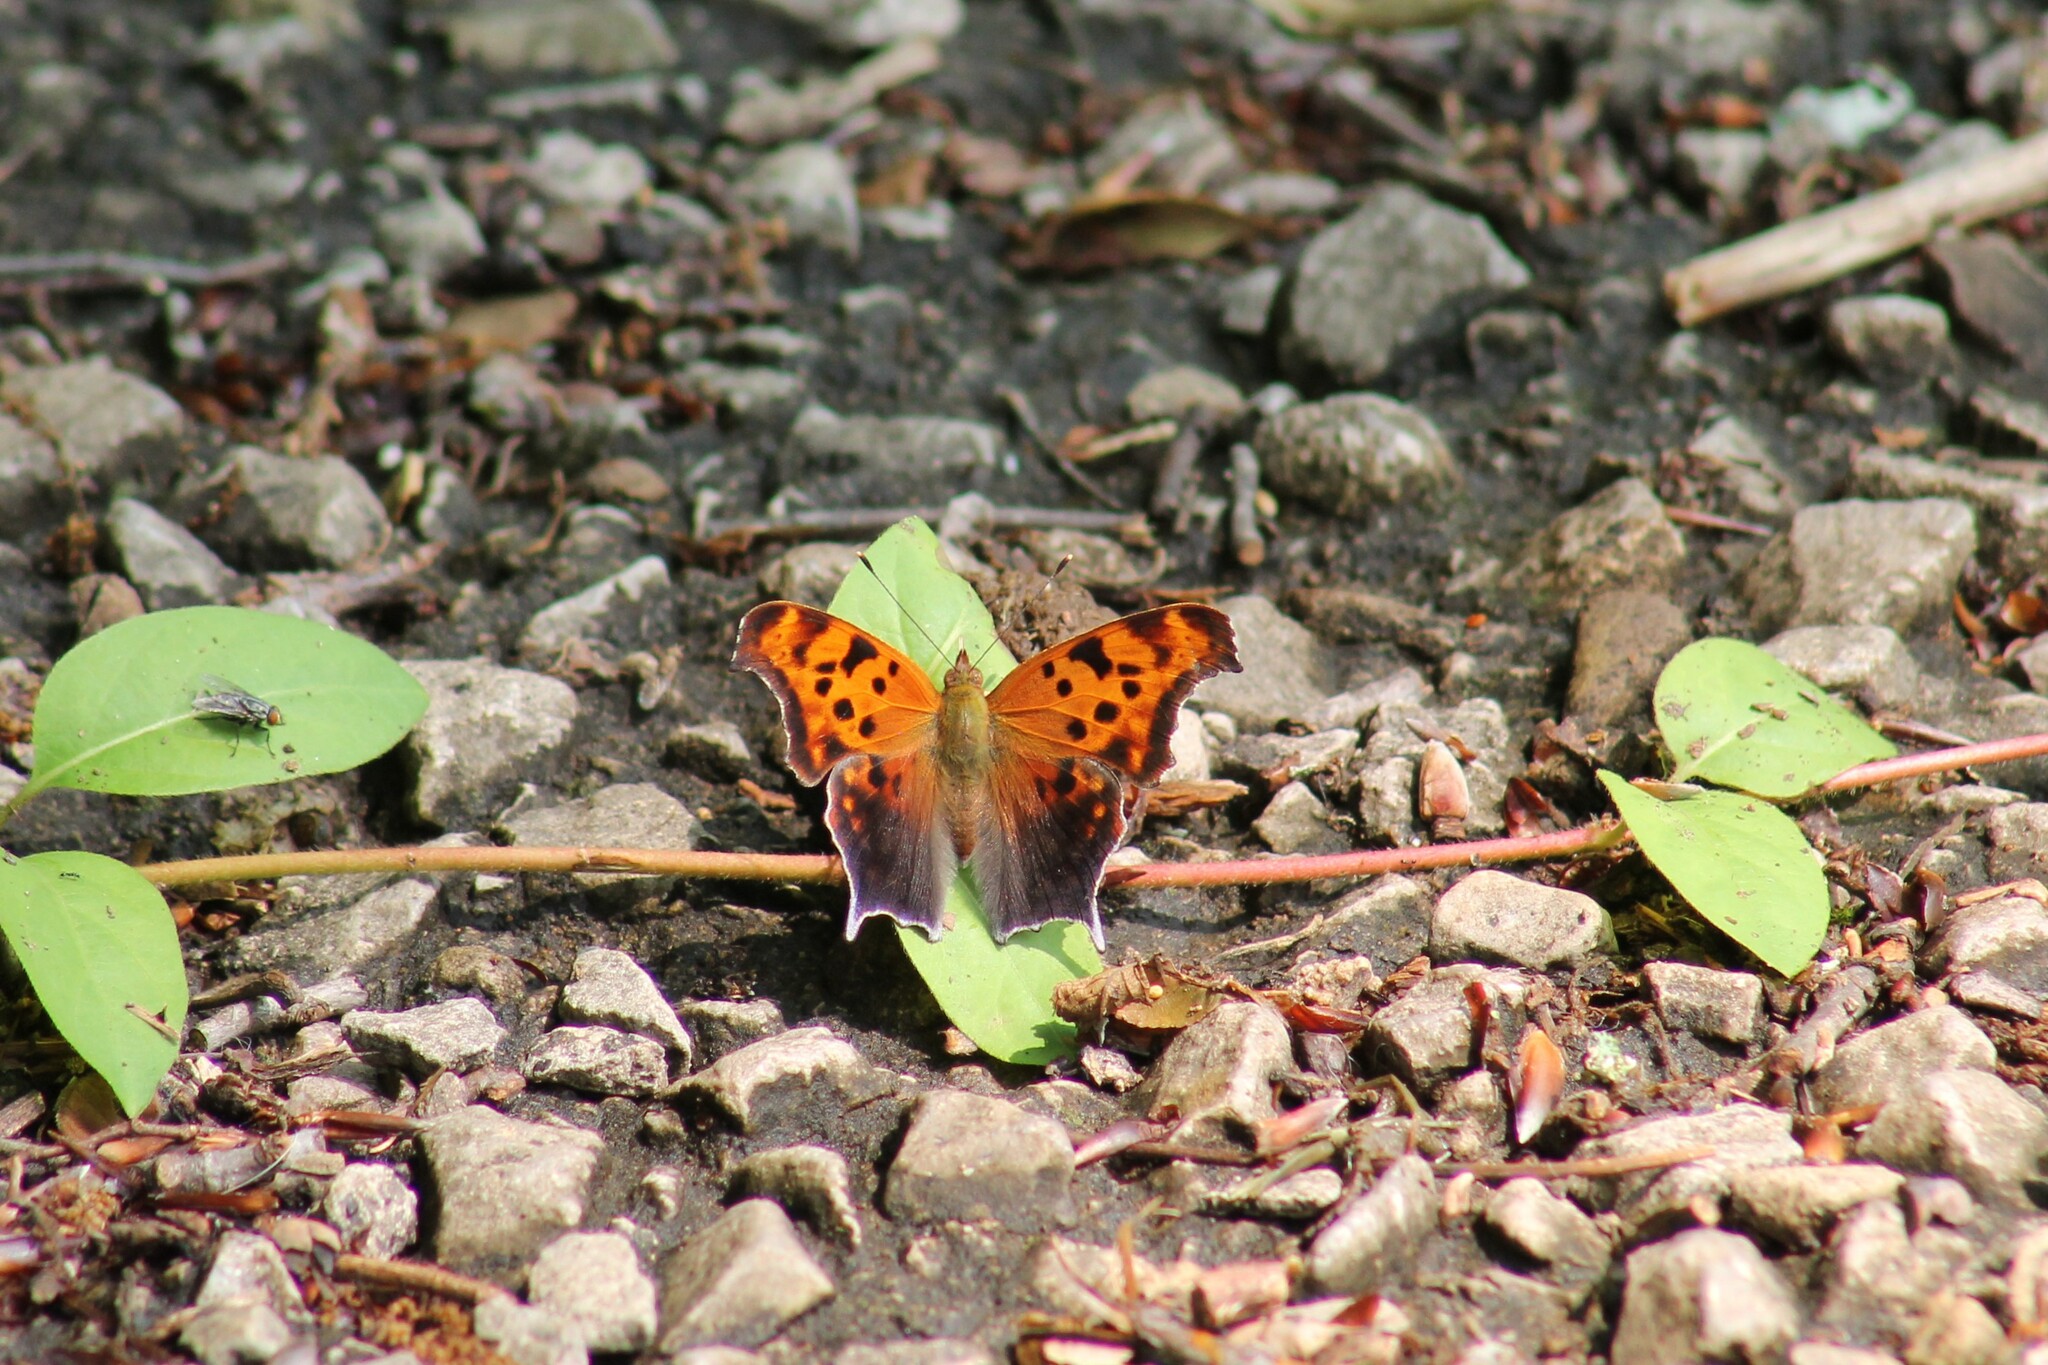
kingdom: Animalia
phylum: Arthropoda
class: Insecta
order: Lepidoptera
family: Nymphalidae
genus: Polygonia
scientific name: Polygonia interrogationis
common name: Question mark
